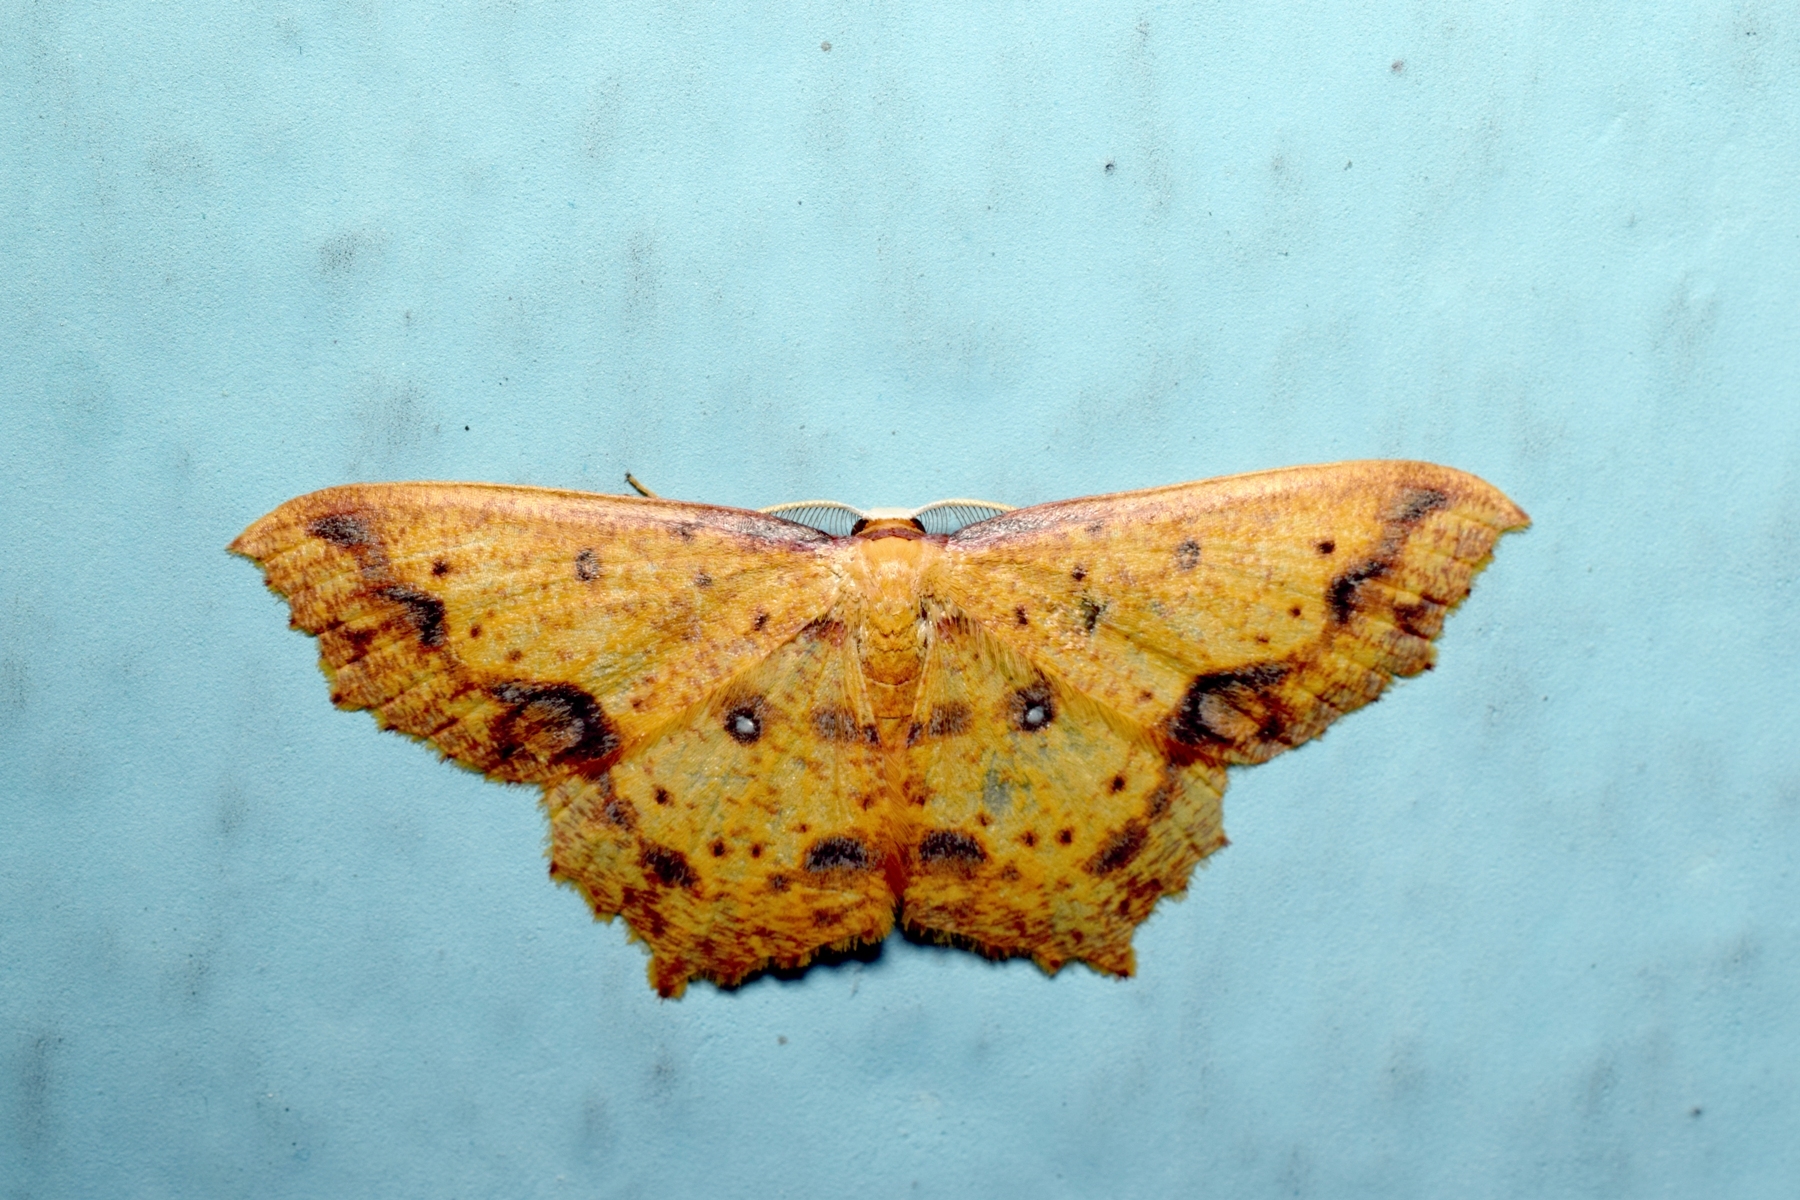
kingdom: Animalia
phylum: Arthropoda
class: Insecta
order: Lepidoptera
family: Geometridae
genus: Synegiodes
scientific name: Synegiodes histrionaria
